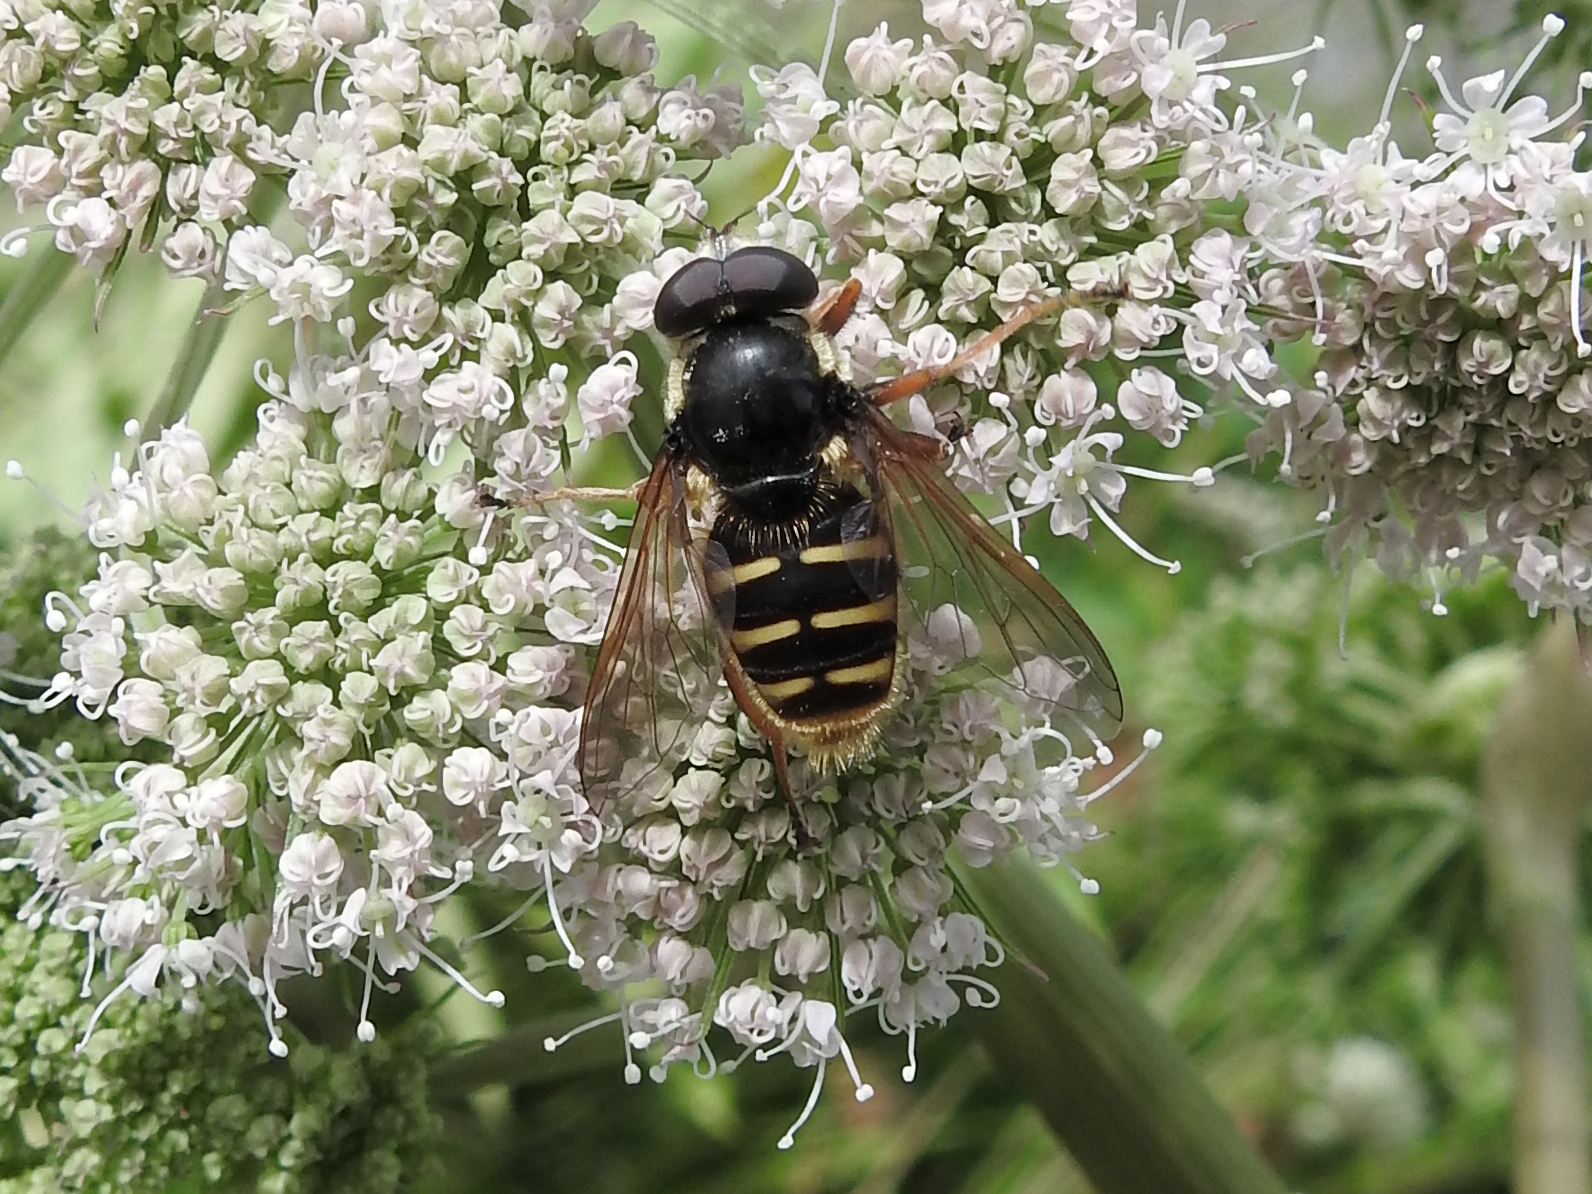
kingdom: Animalia
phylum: Arthropoda
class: Insecta
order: Diptera
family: Syrphidae
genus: Sericomyia
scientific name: Sericomyia silentis
